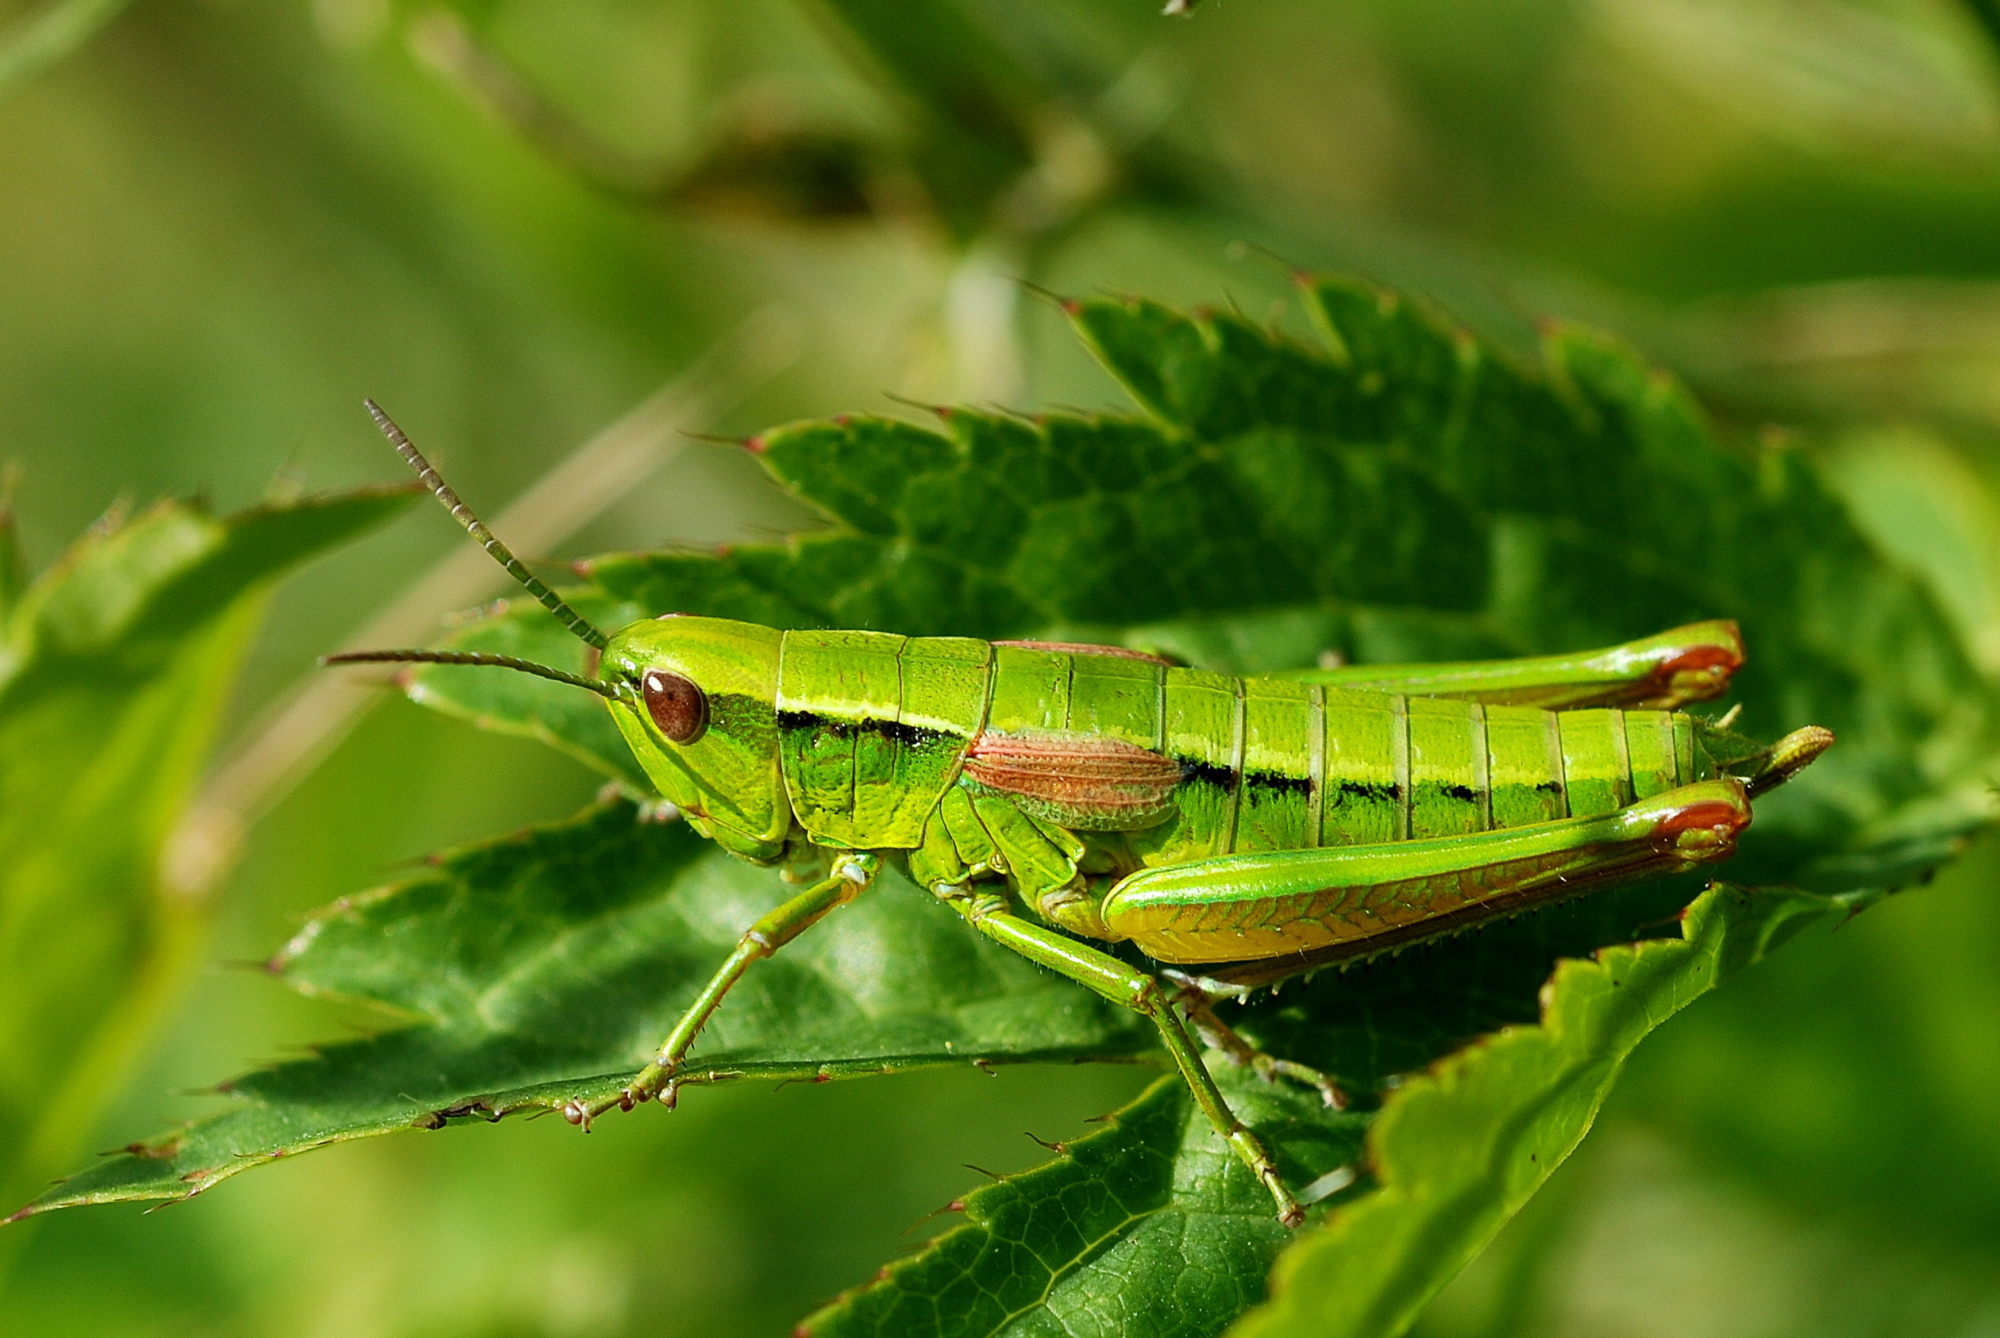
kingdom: Animalia
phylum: Arthropoda
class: Insecta
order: Orthoptera
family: Acrididae
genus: Euthystira
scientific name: Euthystira brachyptera
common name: Small gold grasshopper
